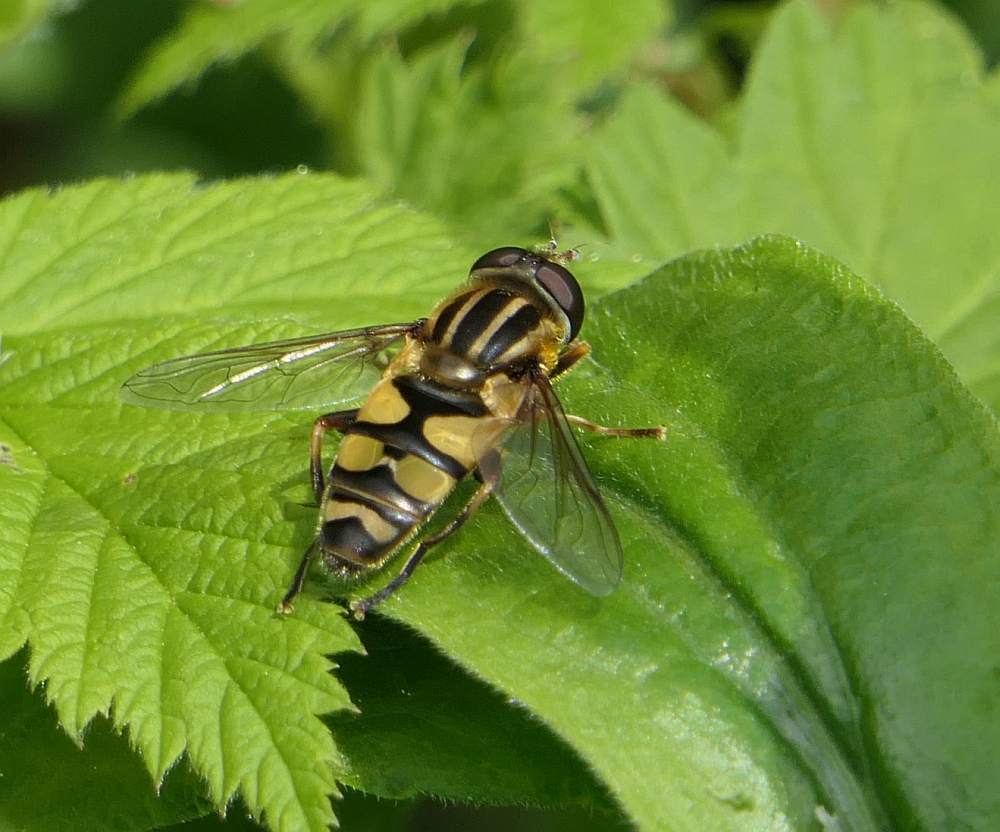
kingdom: Animalia
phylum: Arthropoda
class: Insecta
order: Diptera
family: Syrphidae
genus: Helophilus
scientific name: Helophilus fasciatus
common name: Narrow-headed marsh fly
